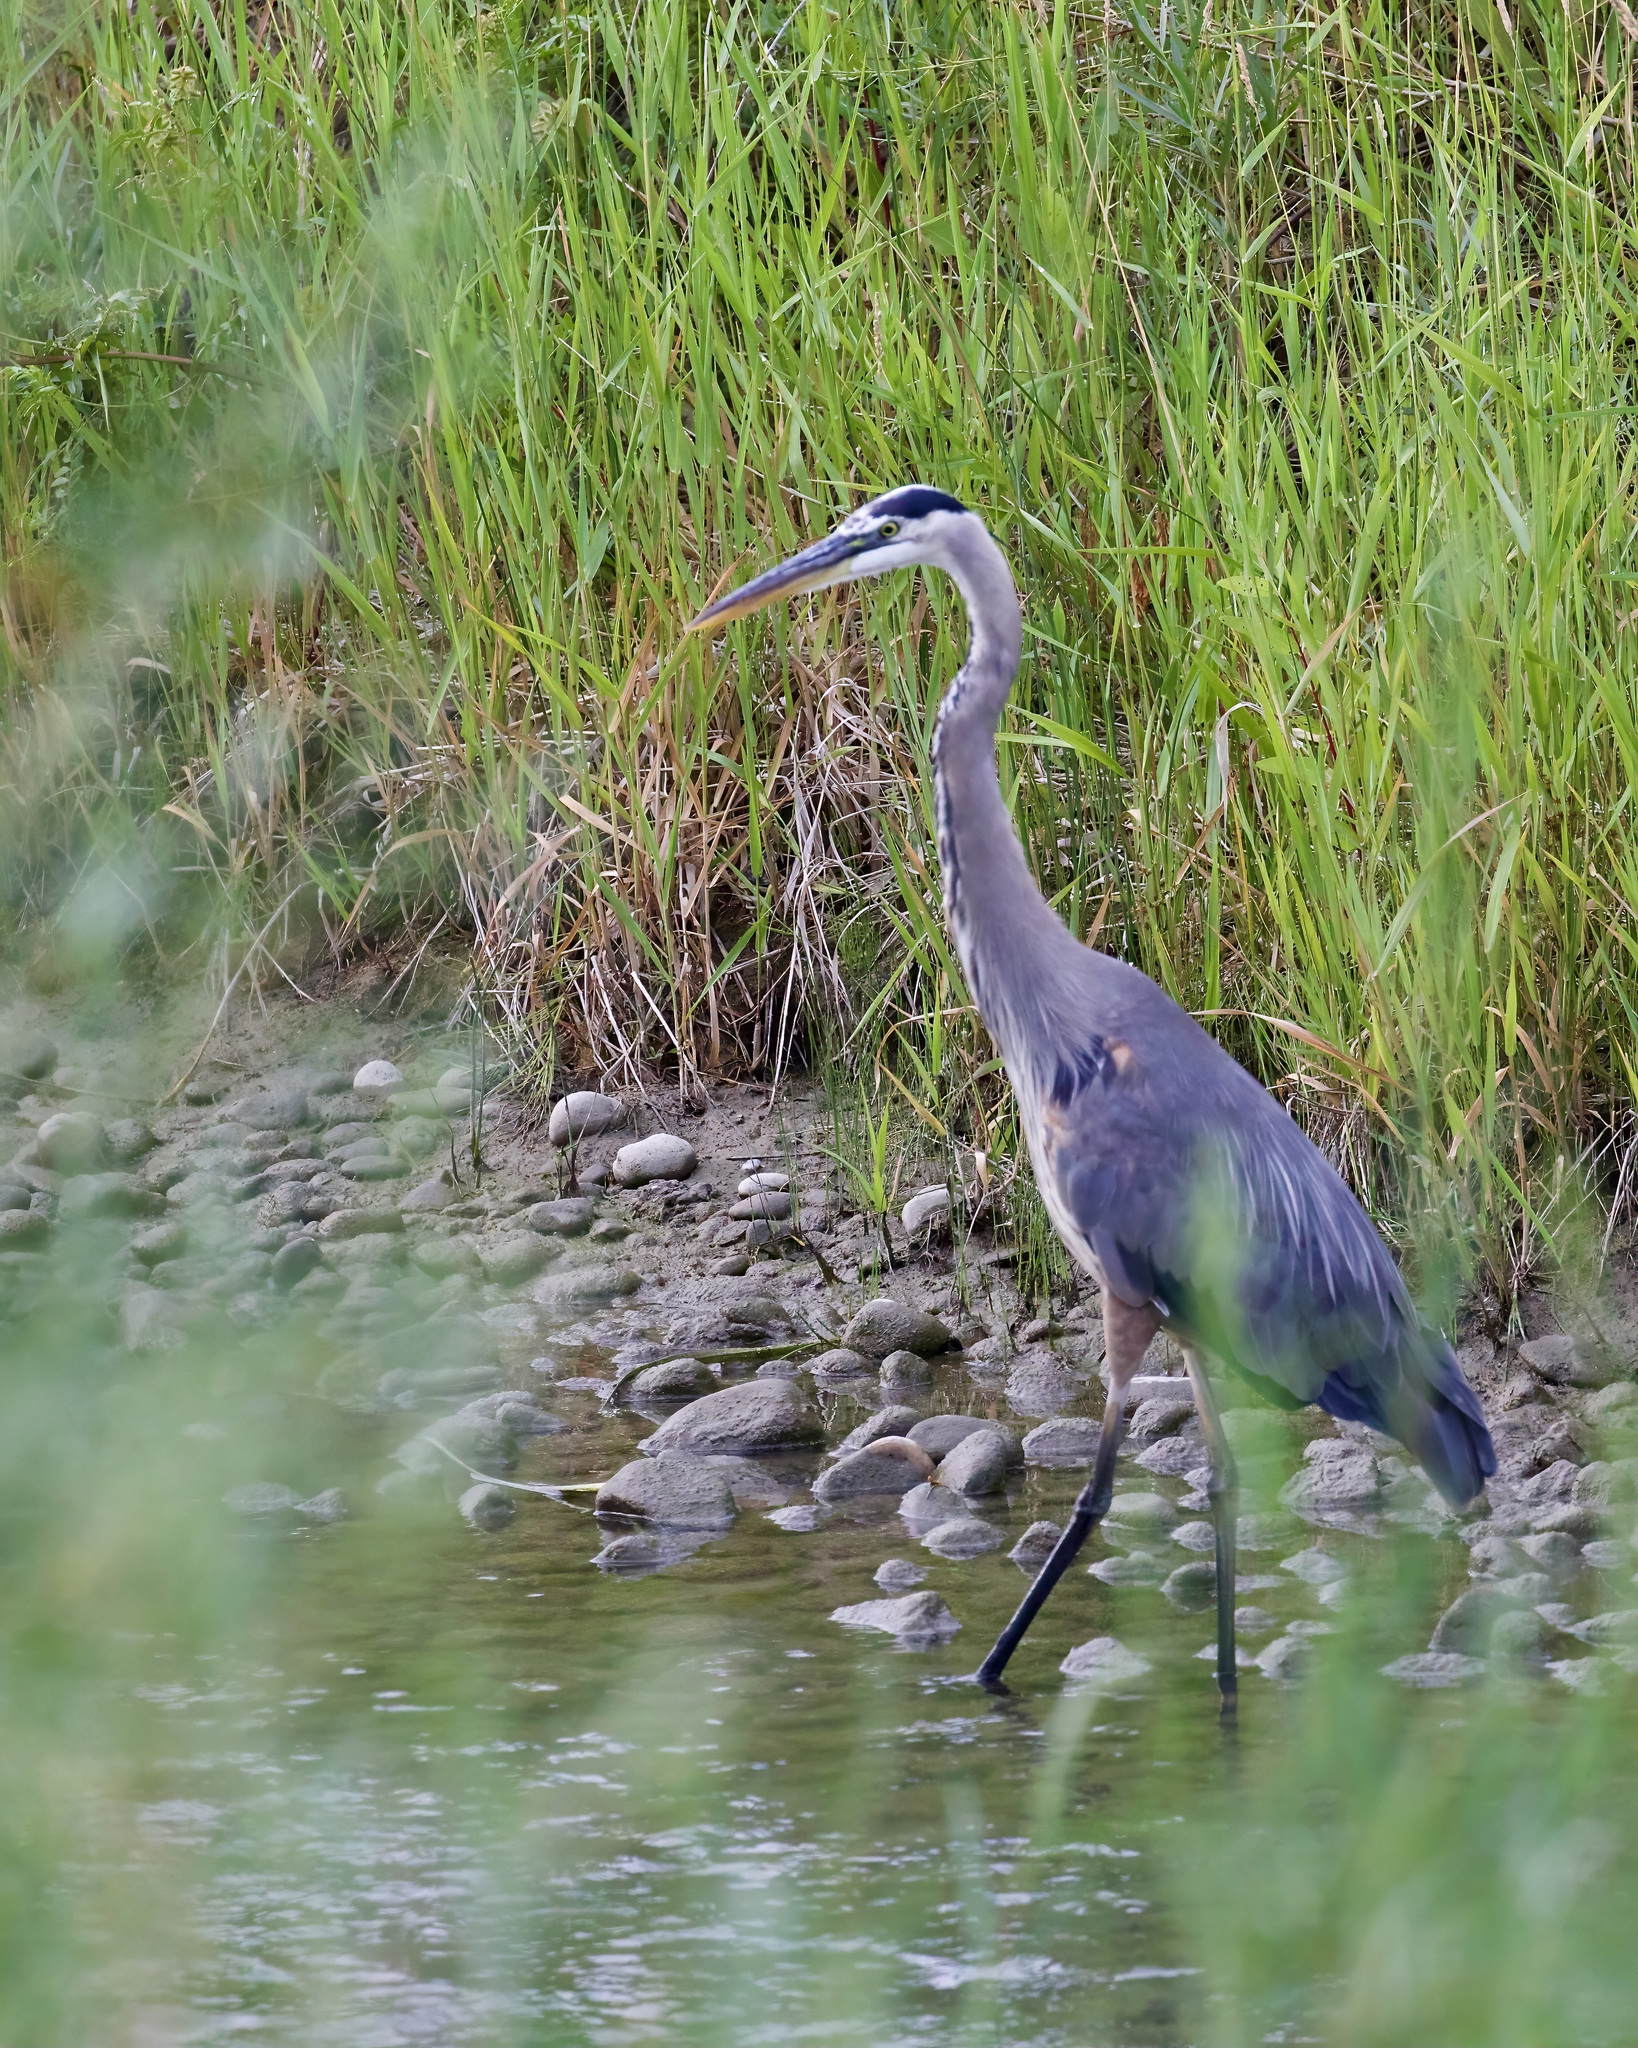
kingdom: Animalia
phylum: Chordata
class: Aves
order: Pelecaniformes
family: Ardeidae
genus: Ardea
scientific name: Ardea herodias
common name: Great blue heron
